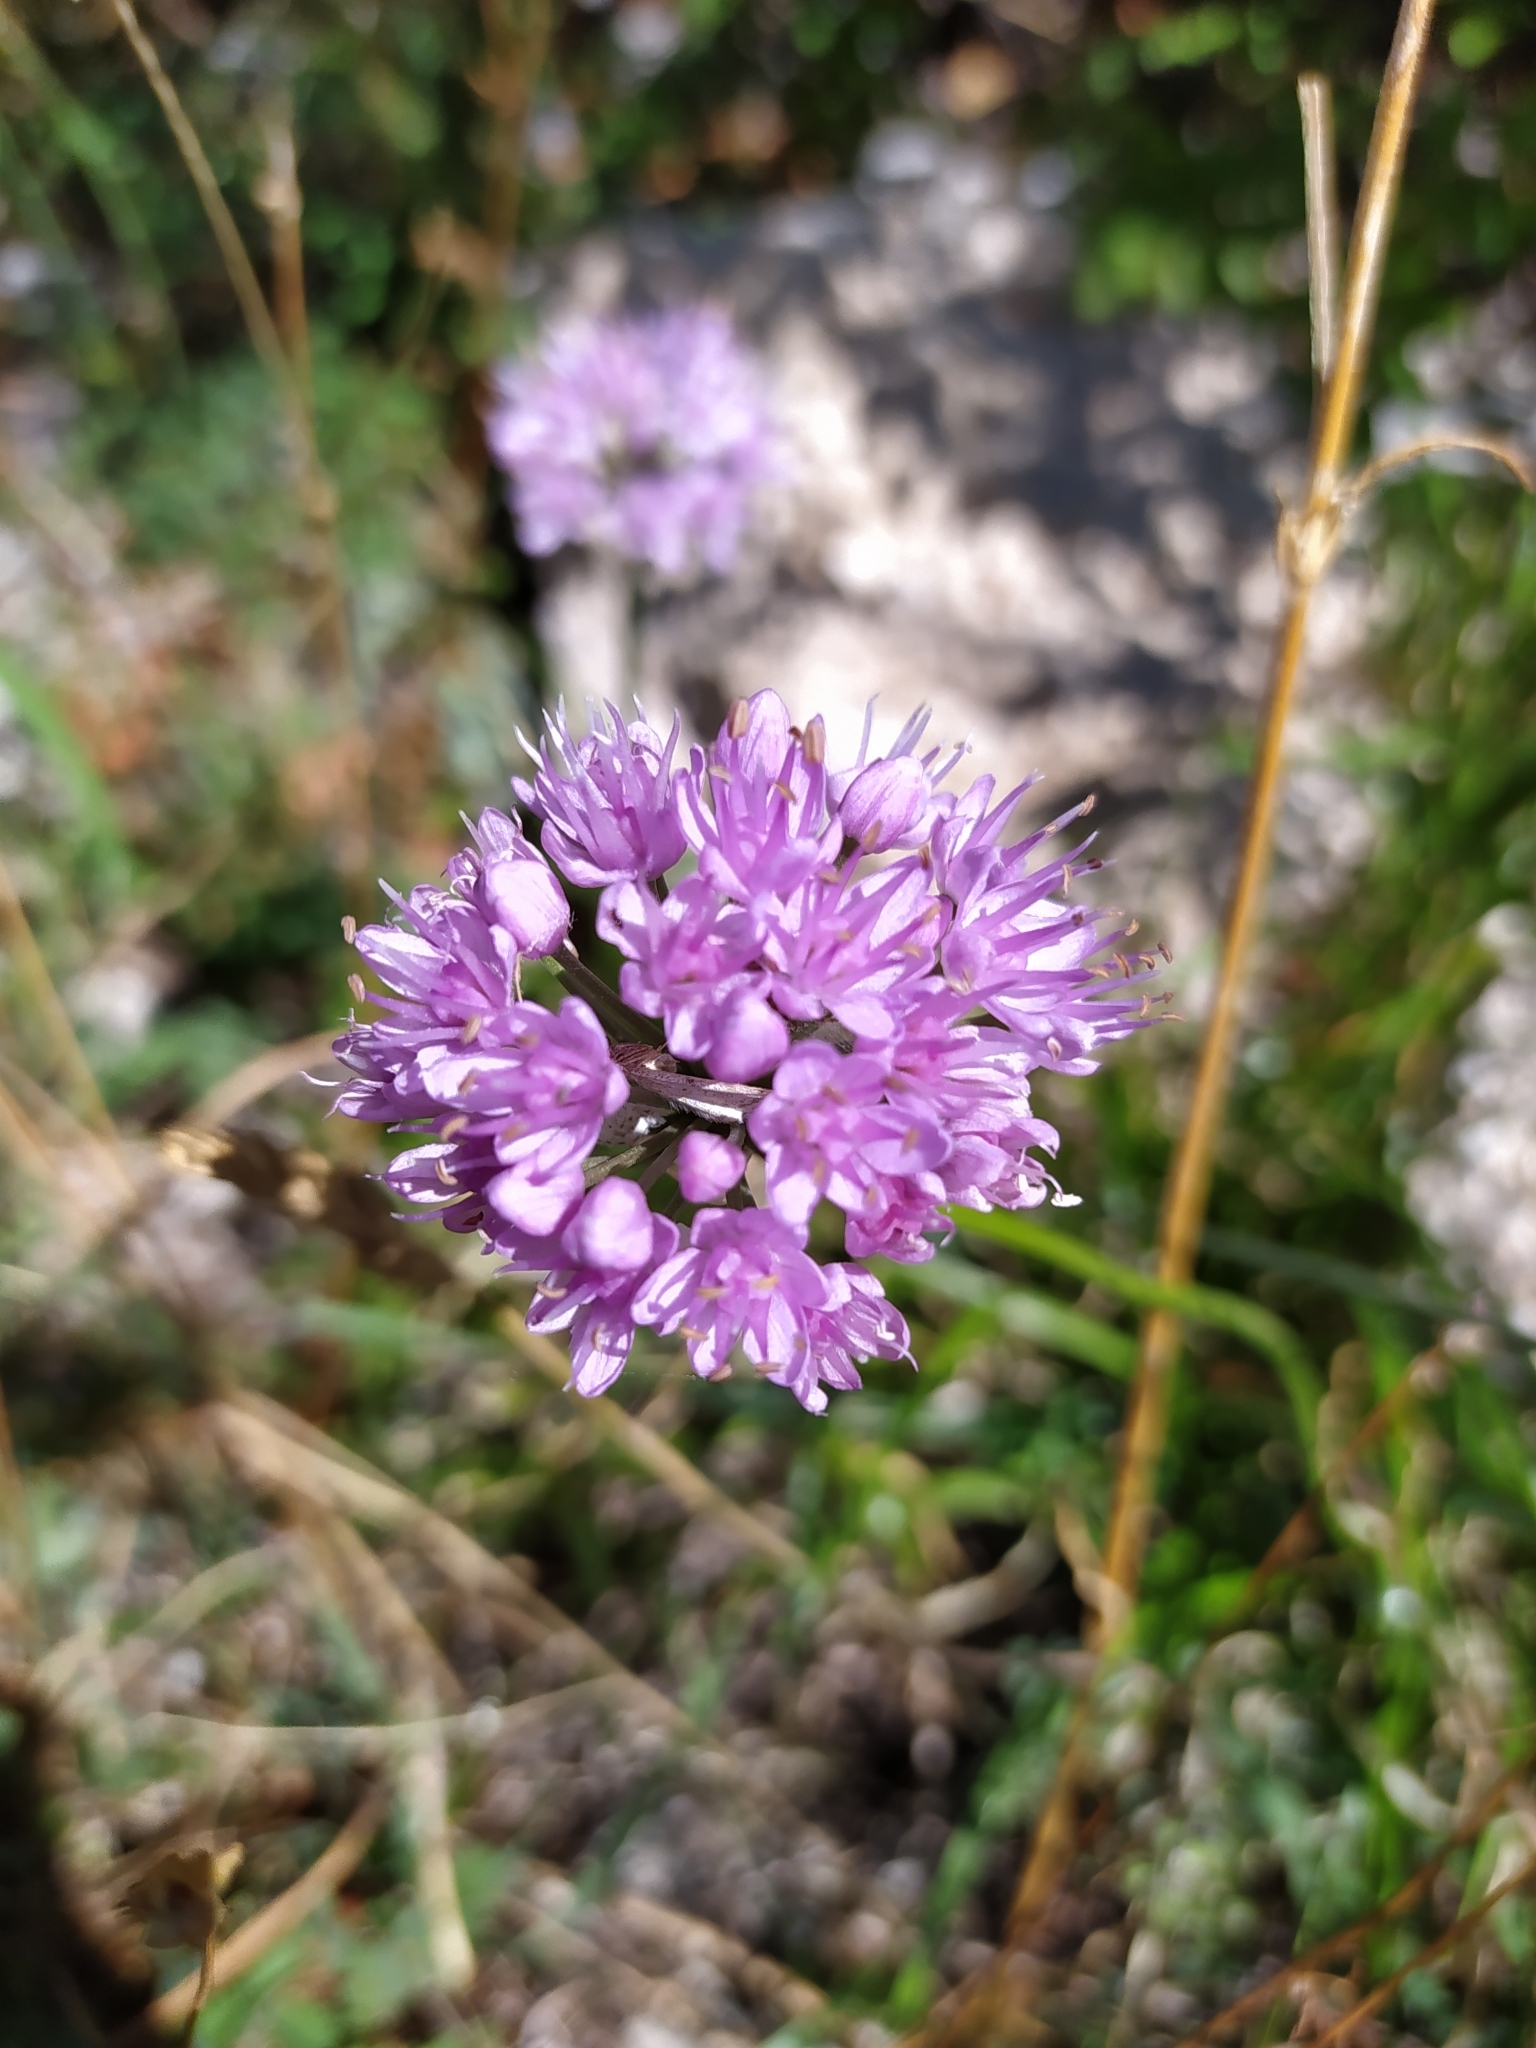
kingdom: Plantae
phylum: Tracheophyta
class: Liliopsida
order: Asparagales
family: Amaryllidaceae
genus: Allium
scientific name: Allium lusitanicum
